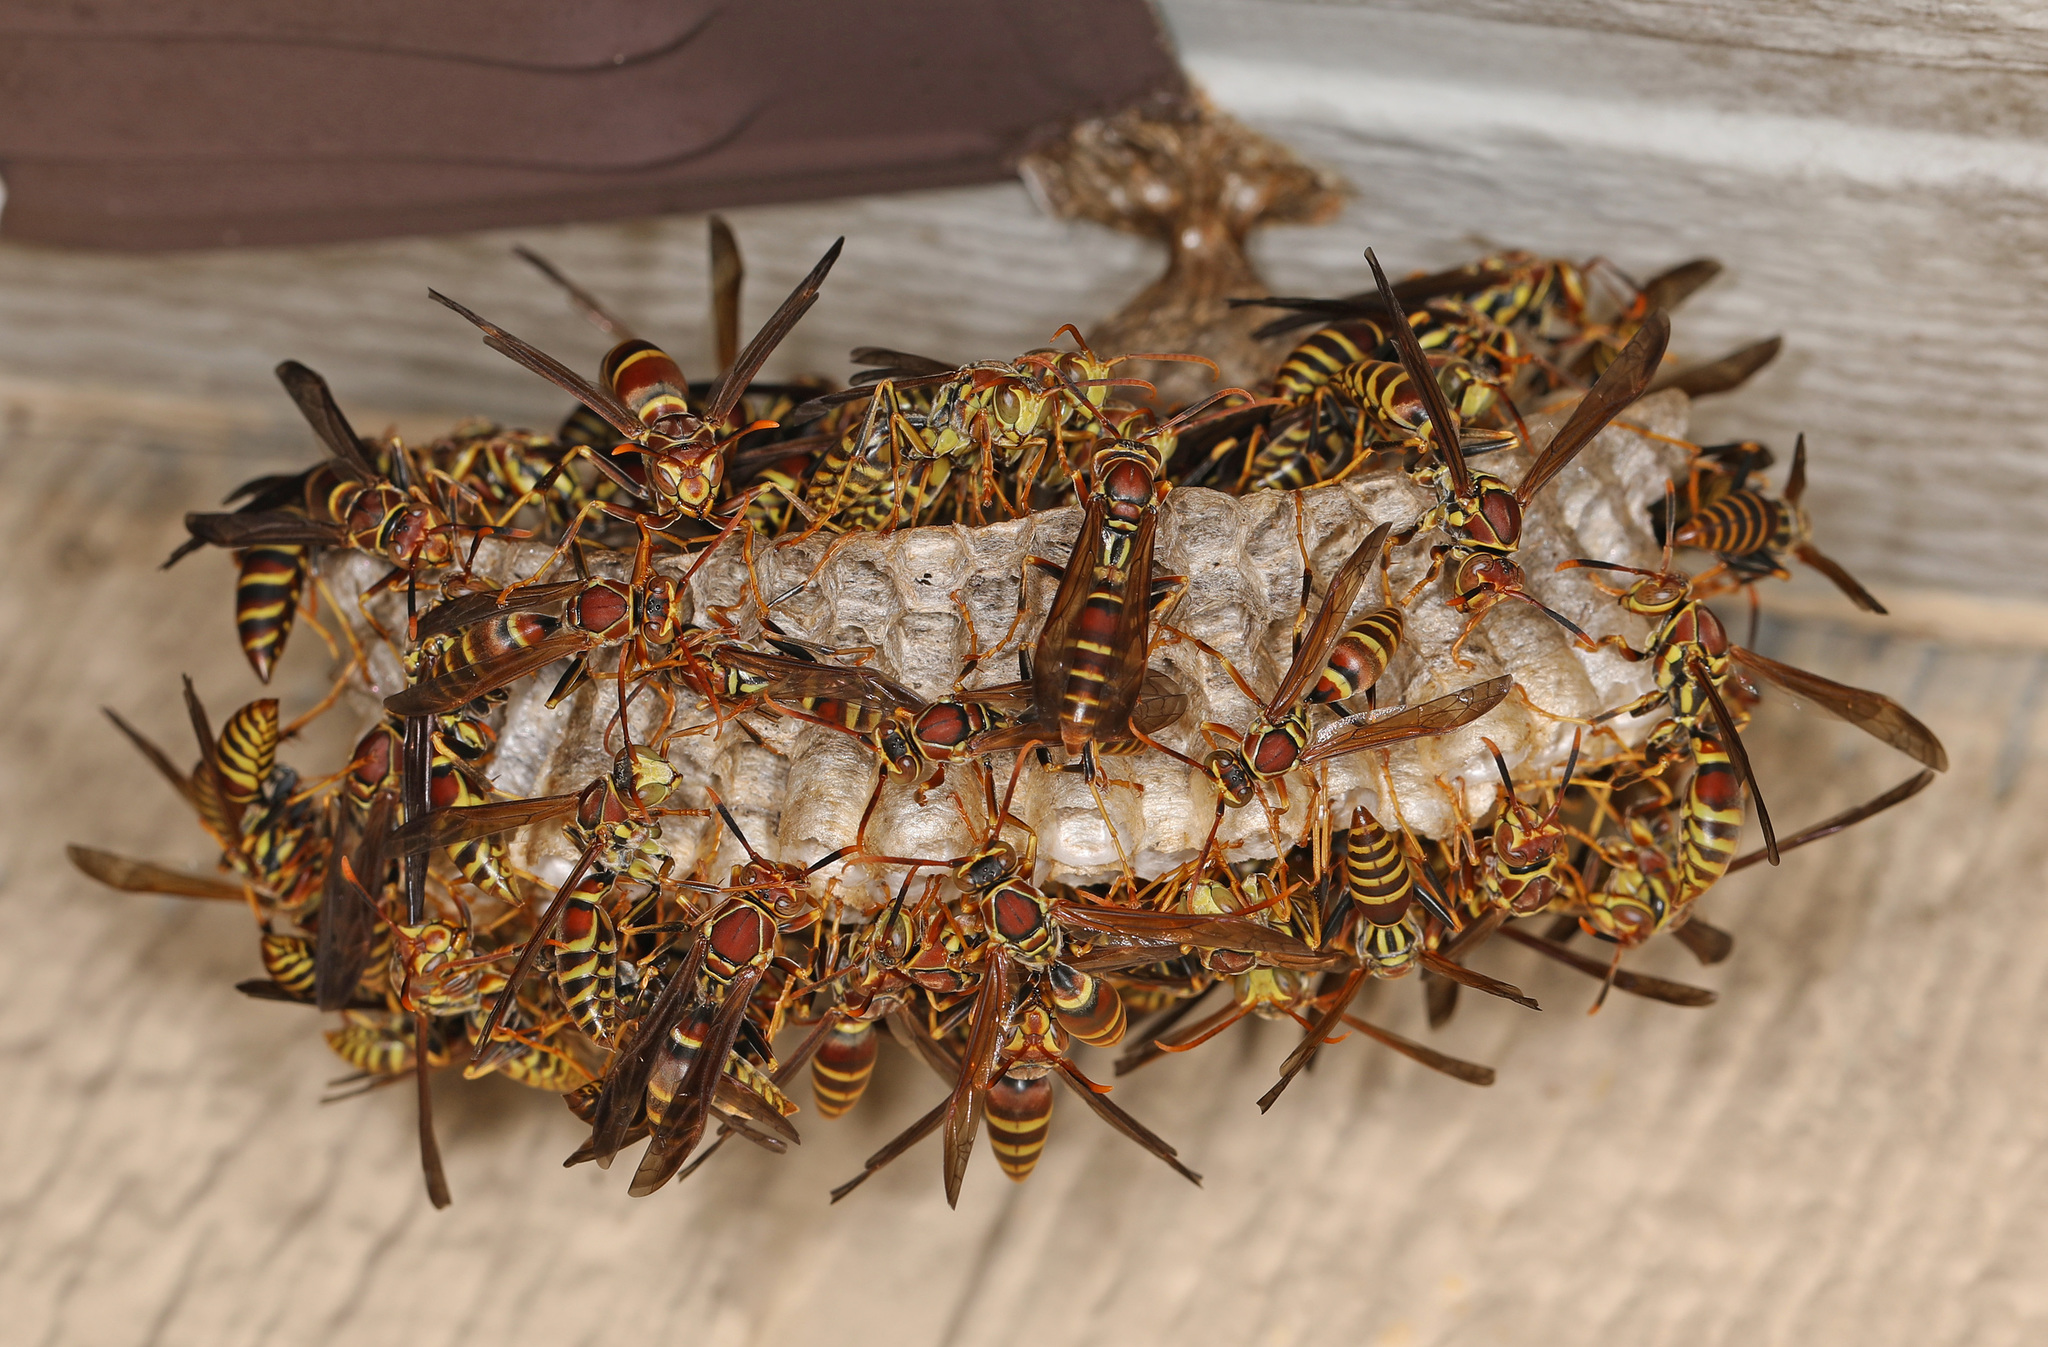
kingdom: Animalia
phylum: Arthropoda
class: Insecta
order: Hymenoptera
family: Eumenidae
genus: Polistes
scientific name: Polistes exclamans
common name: Paper wasp
